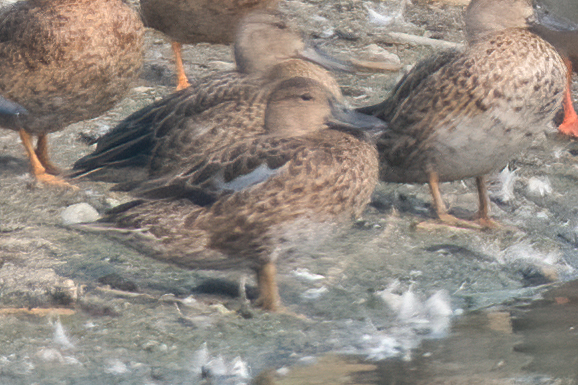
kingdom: Animalia
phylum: Chordata
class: Aves
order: Anseriformes
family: Anatidae
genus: Spatula
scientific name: Spatula cyanoptera
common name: Cinnamon teal
